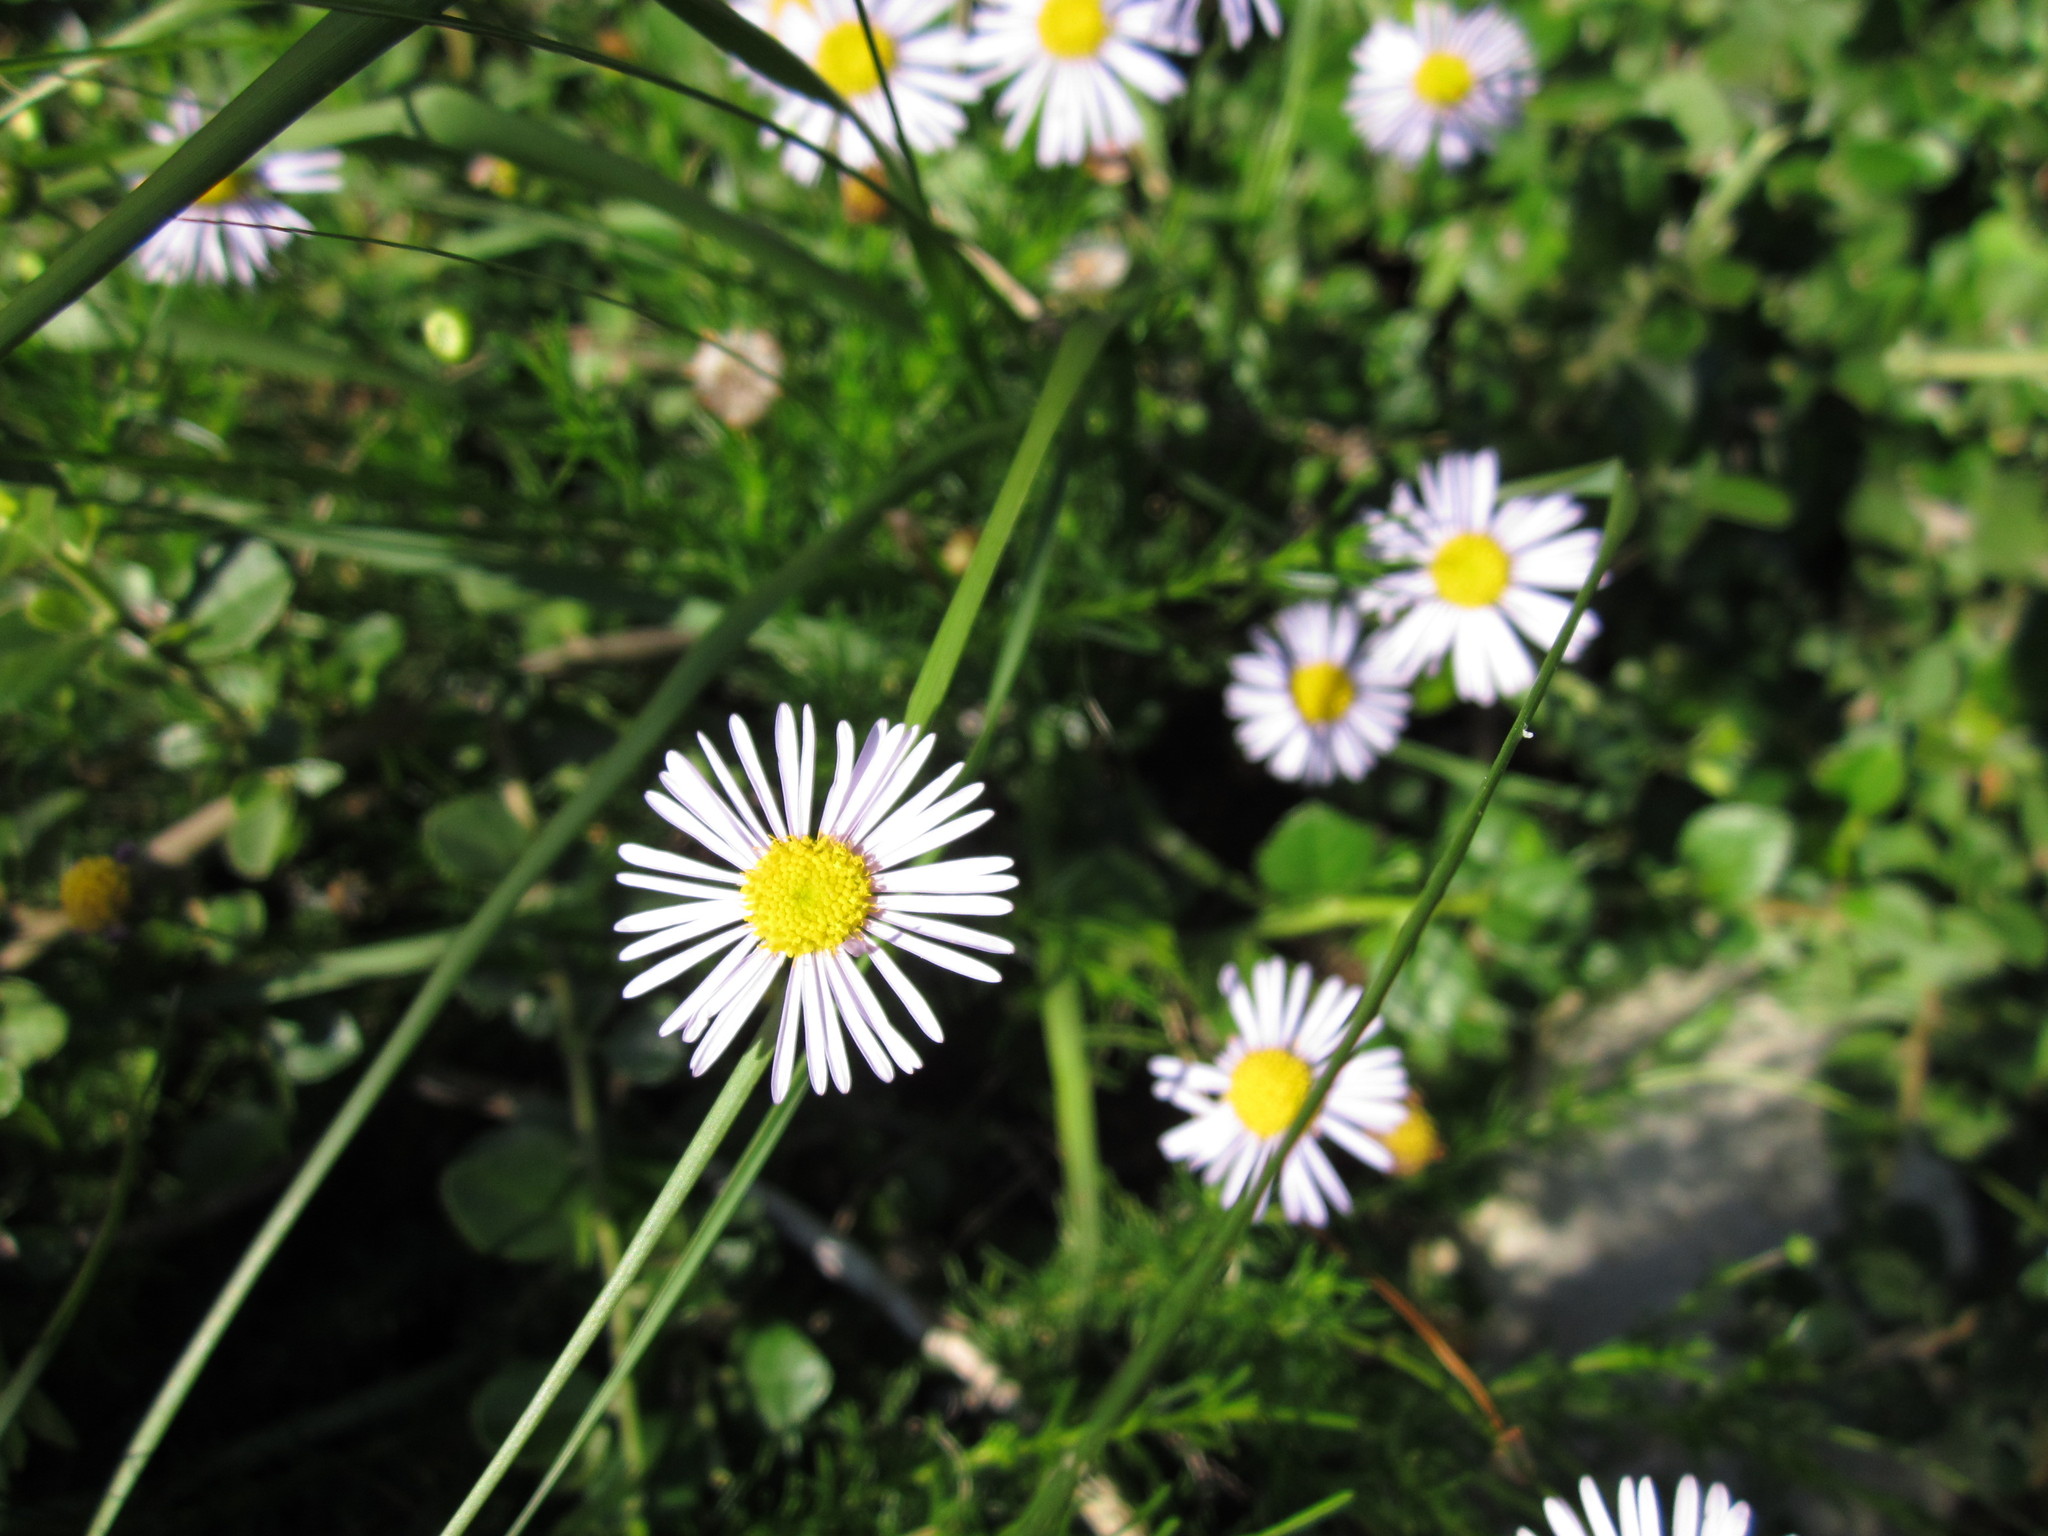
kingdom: Plantae
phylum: Tracheophyta
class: Magnoliopsida
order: Asterales
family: Asteraceae
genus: Felicia
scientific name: Felicia muricata
